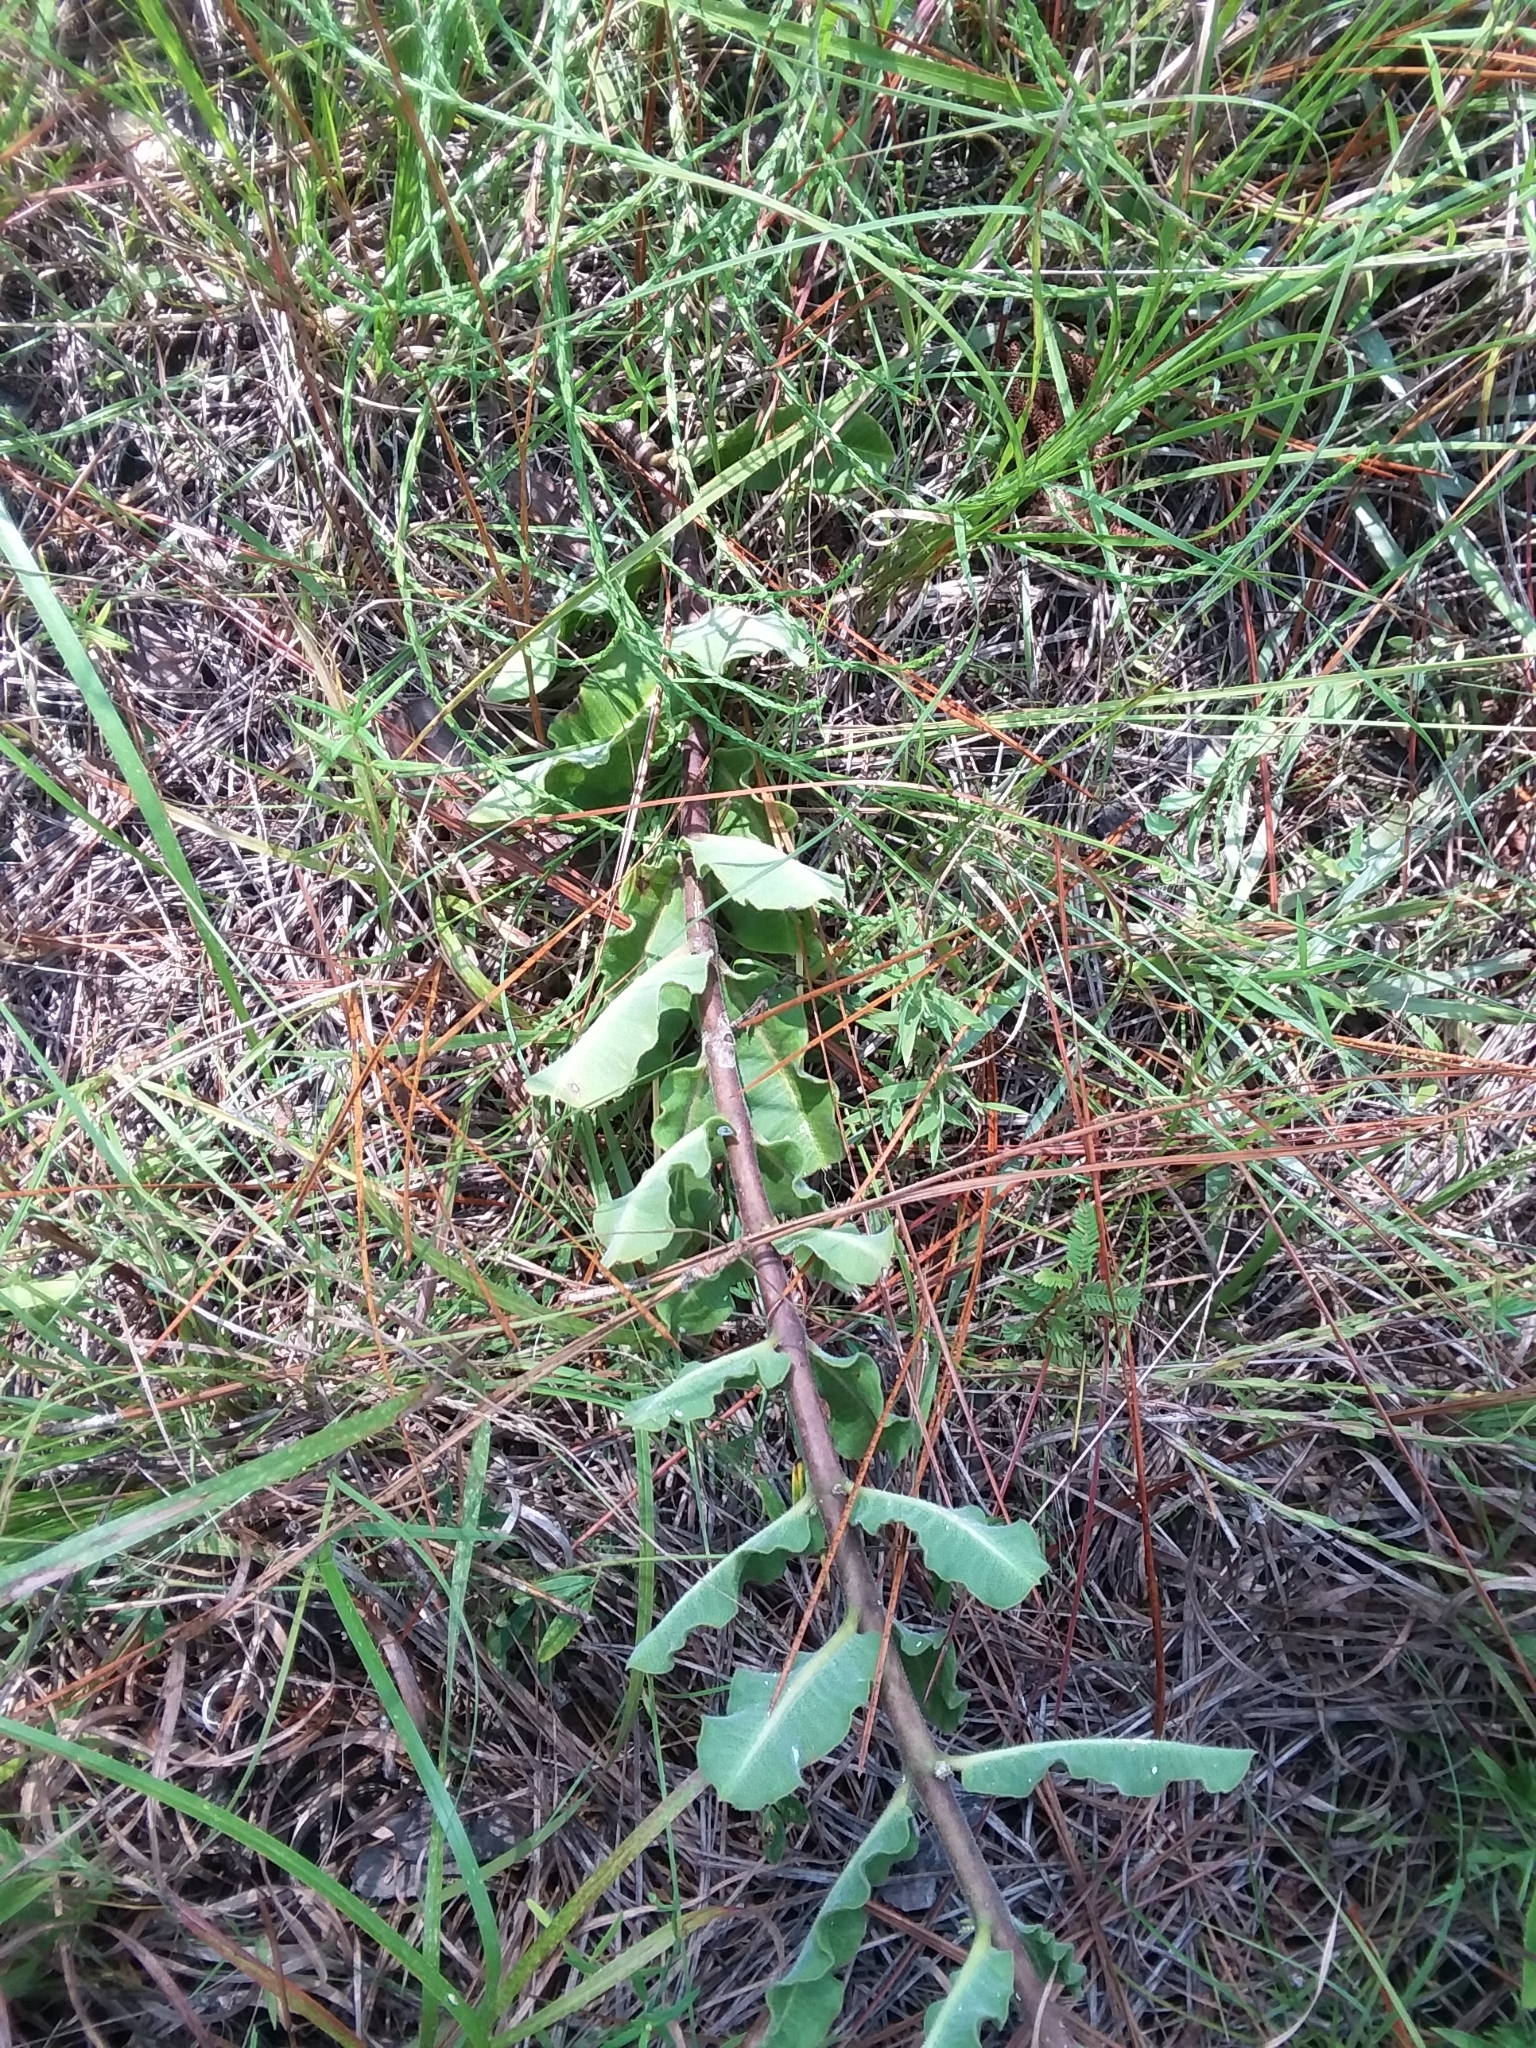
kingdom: Plantae
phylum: Tracheophyta
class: Magnoliopsida
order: Gentianales
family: Apocynaceae
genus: Asclepias
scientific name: Asclepias obovata
